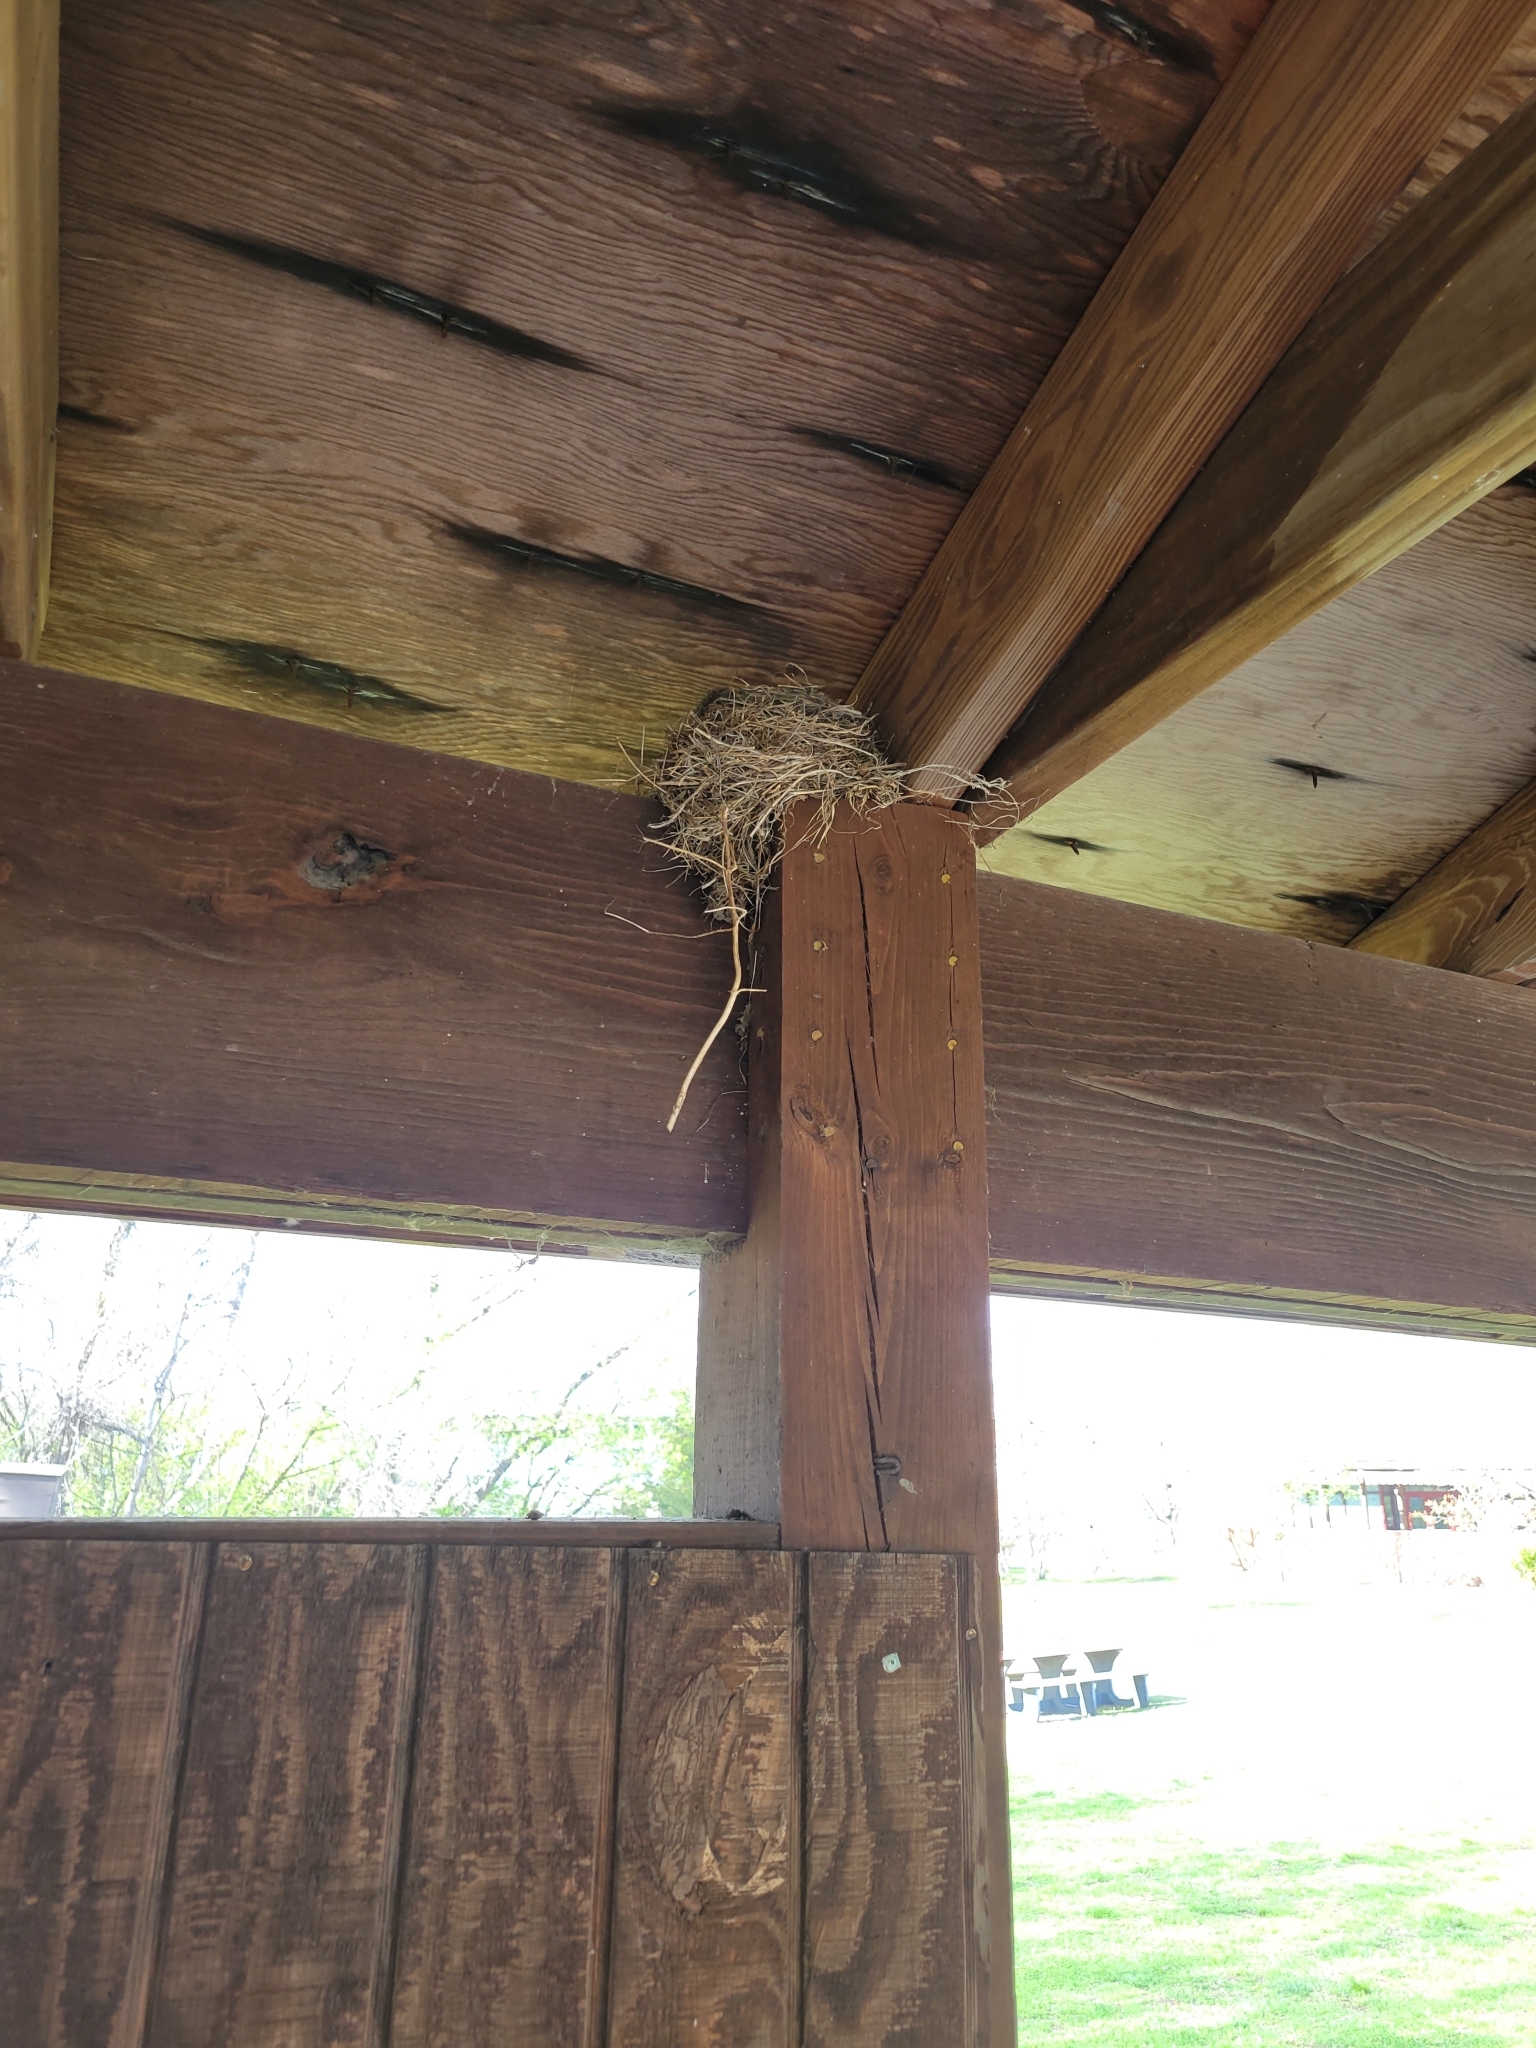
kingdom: Animalia
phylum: Chordata
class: Aves
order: Passeriformes
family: Turdidae
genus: Turdus
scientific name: Turdus migratorius
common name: American robin
